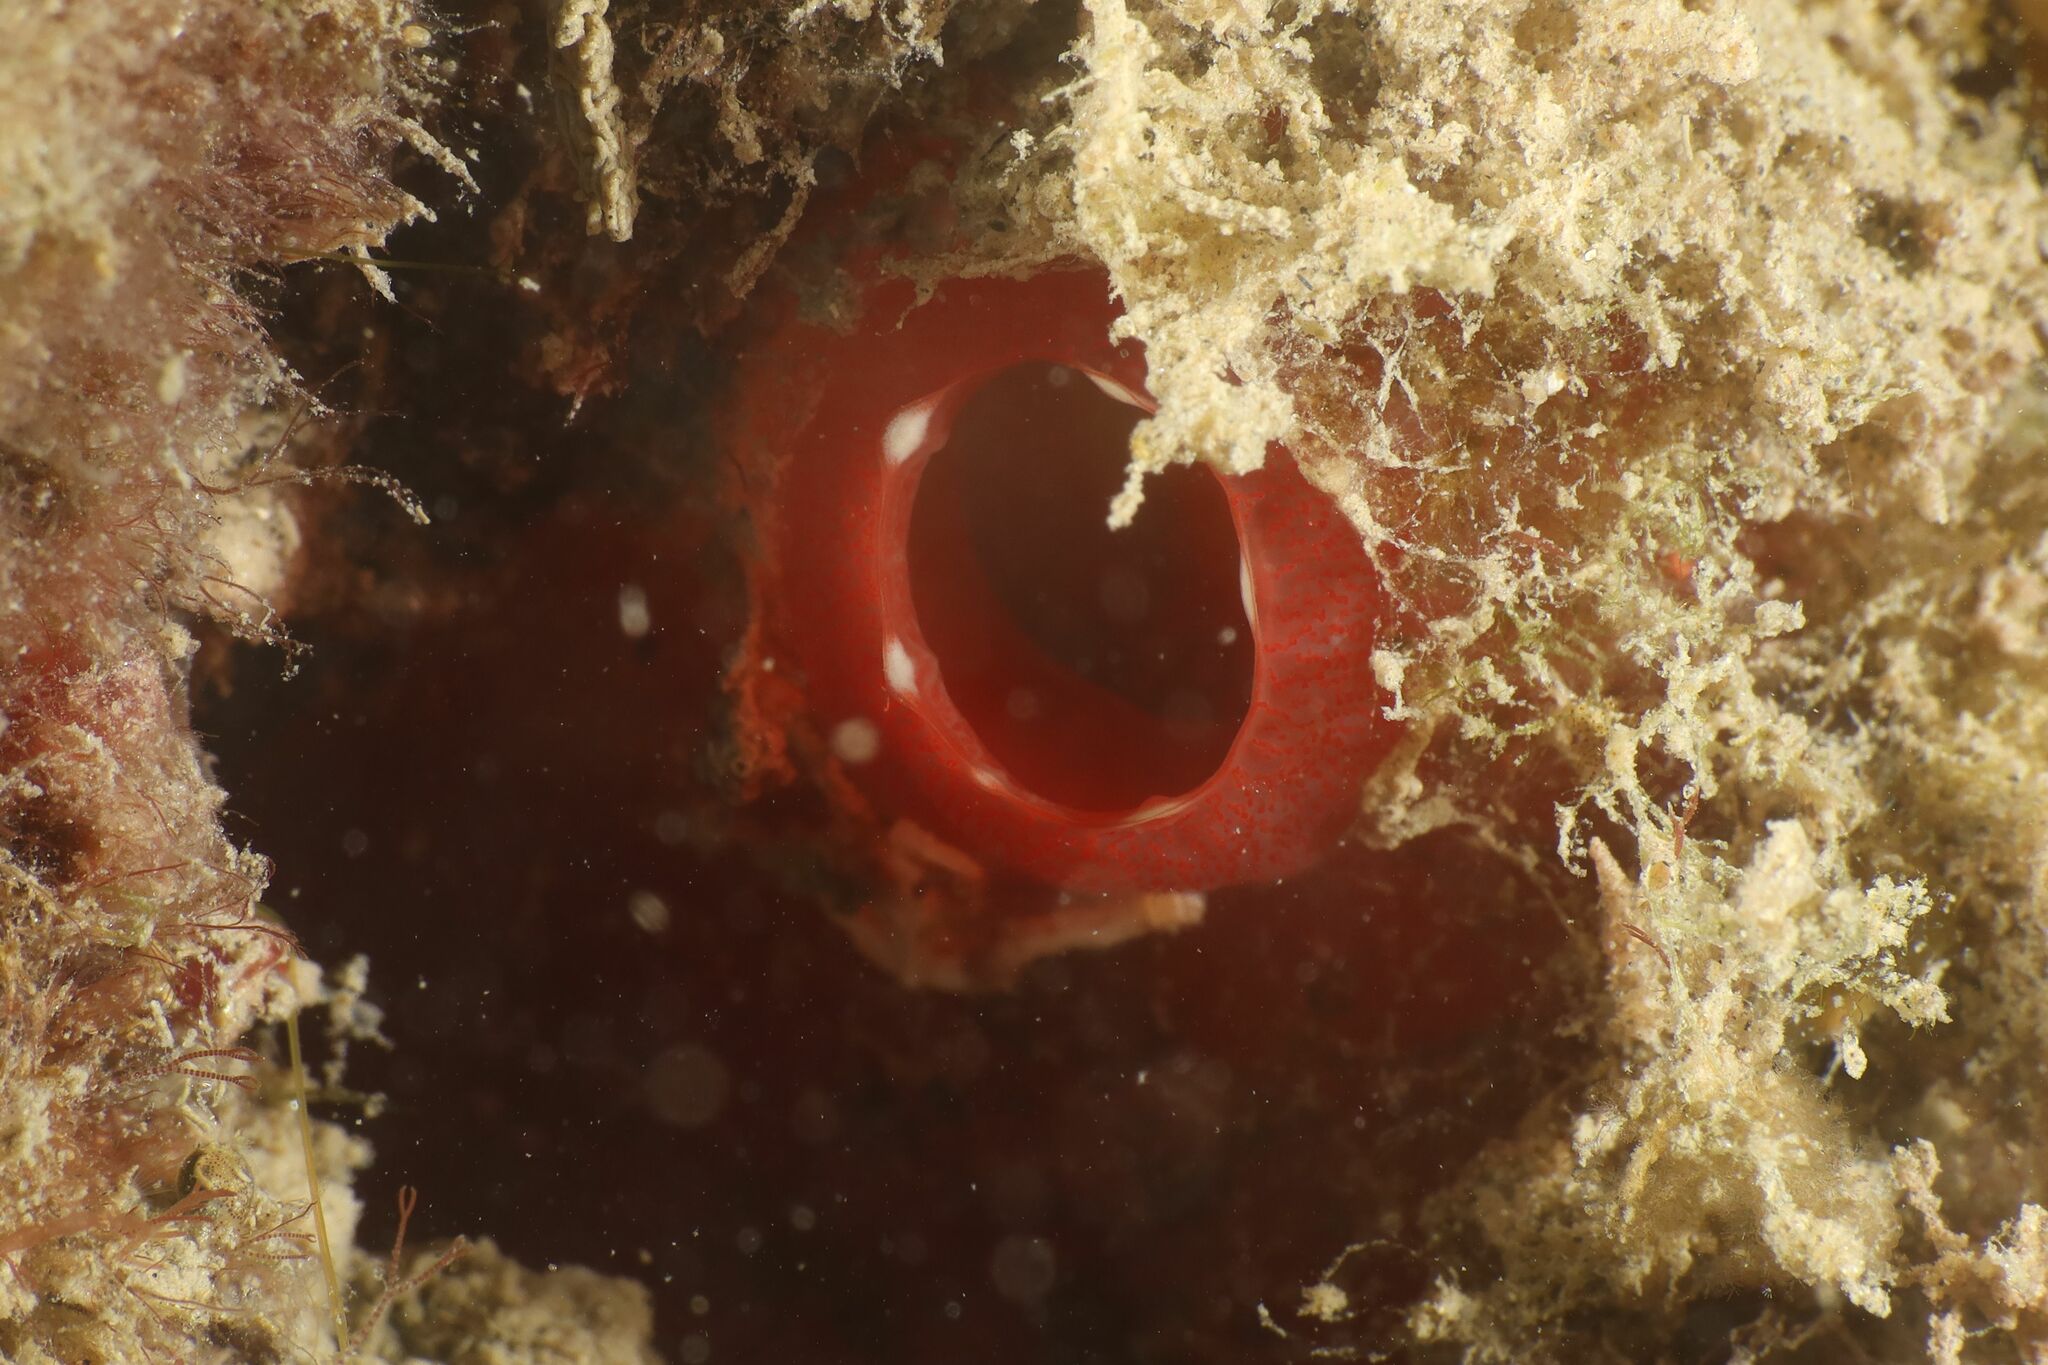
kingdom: Animalia
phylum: Chordata
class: Ascidiacea
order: Phlebobranchia
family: Ascidiidae
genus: Ascidia
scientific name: Ascidia mentula
